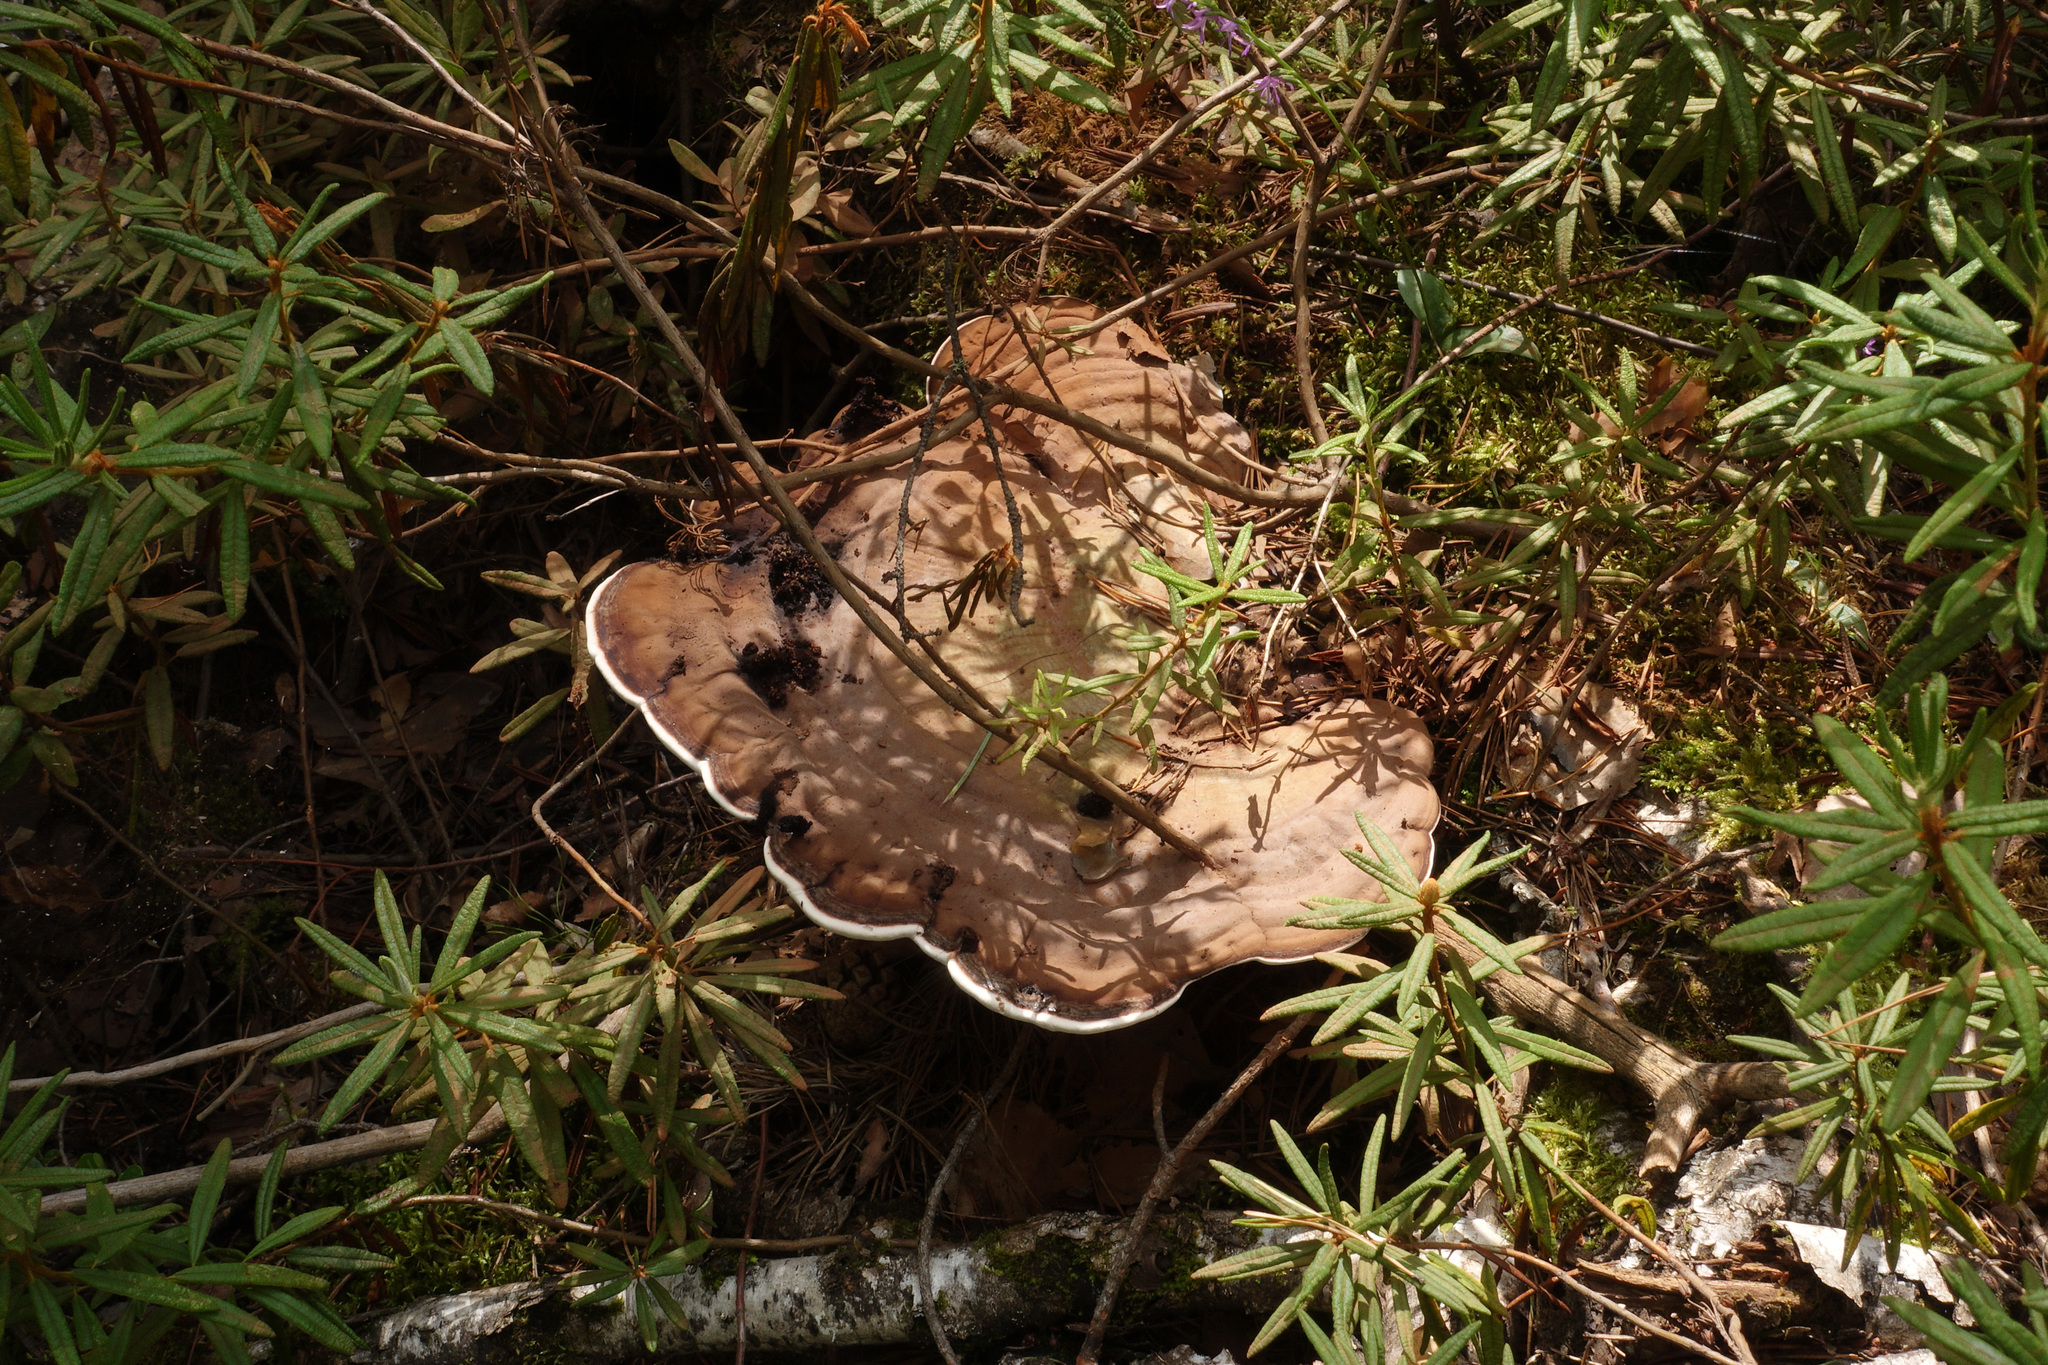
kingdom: Fungi
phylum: Basidiomycota
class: Agaricomycetes
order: Polyporales
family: Polyporaceae
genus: Ganoderma
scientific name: Ganoderma applanatum
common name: Artist's bracket
